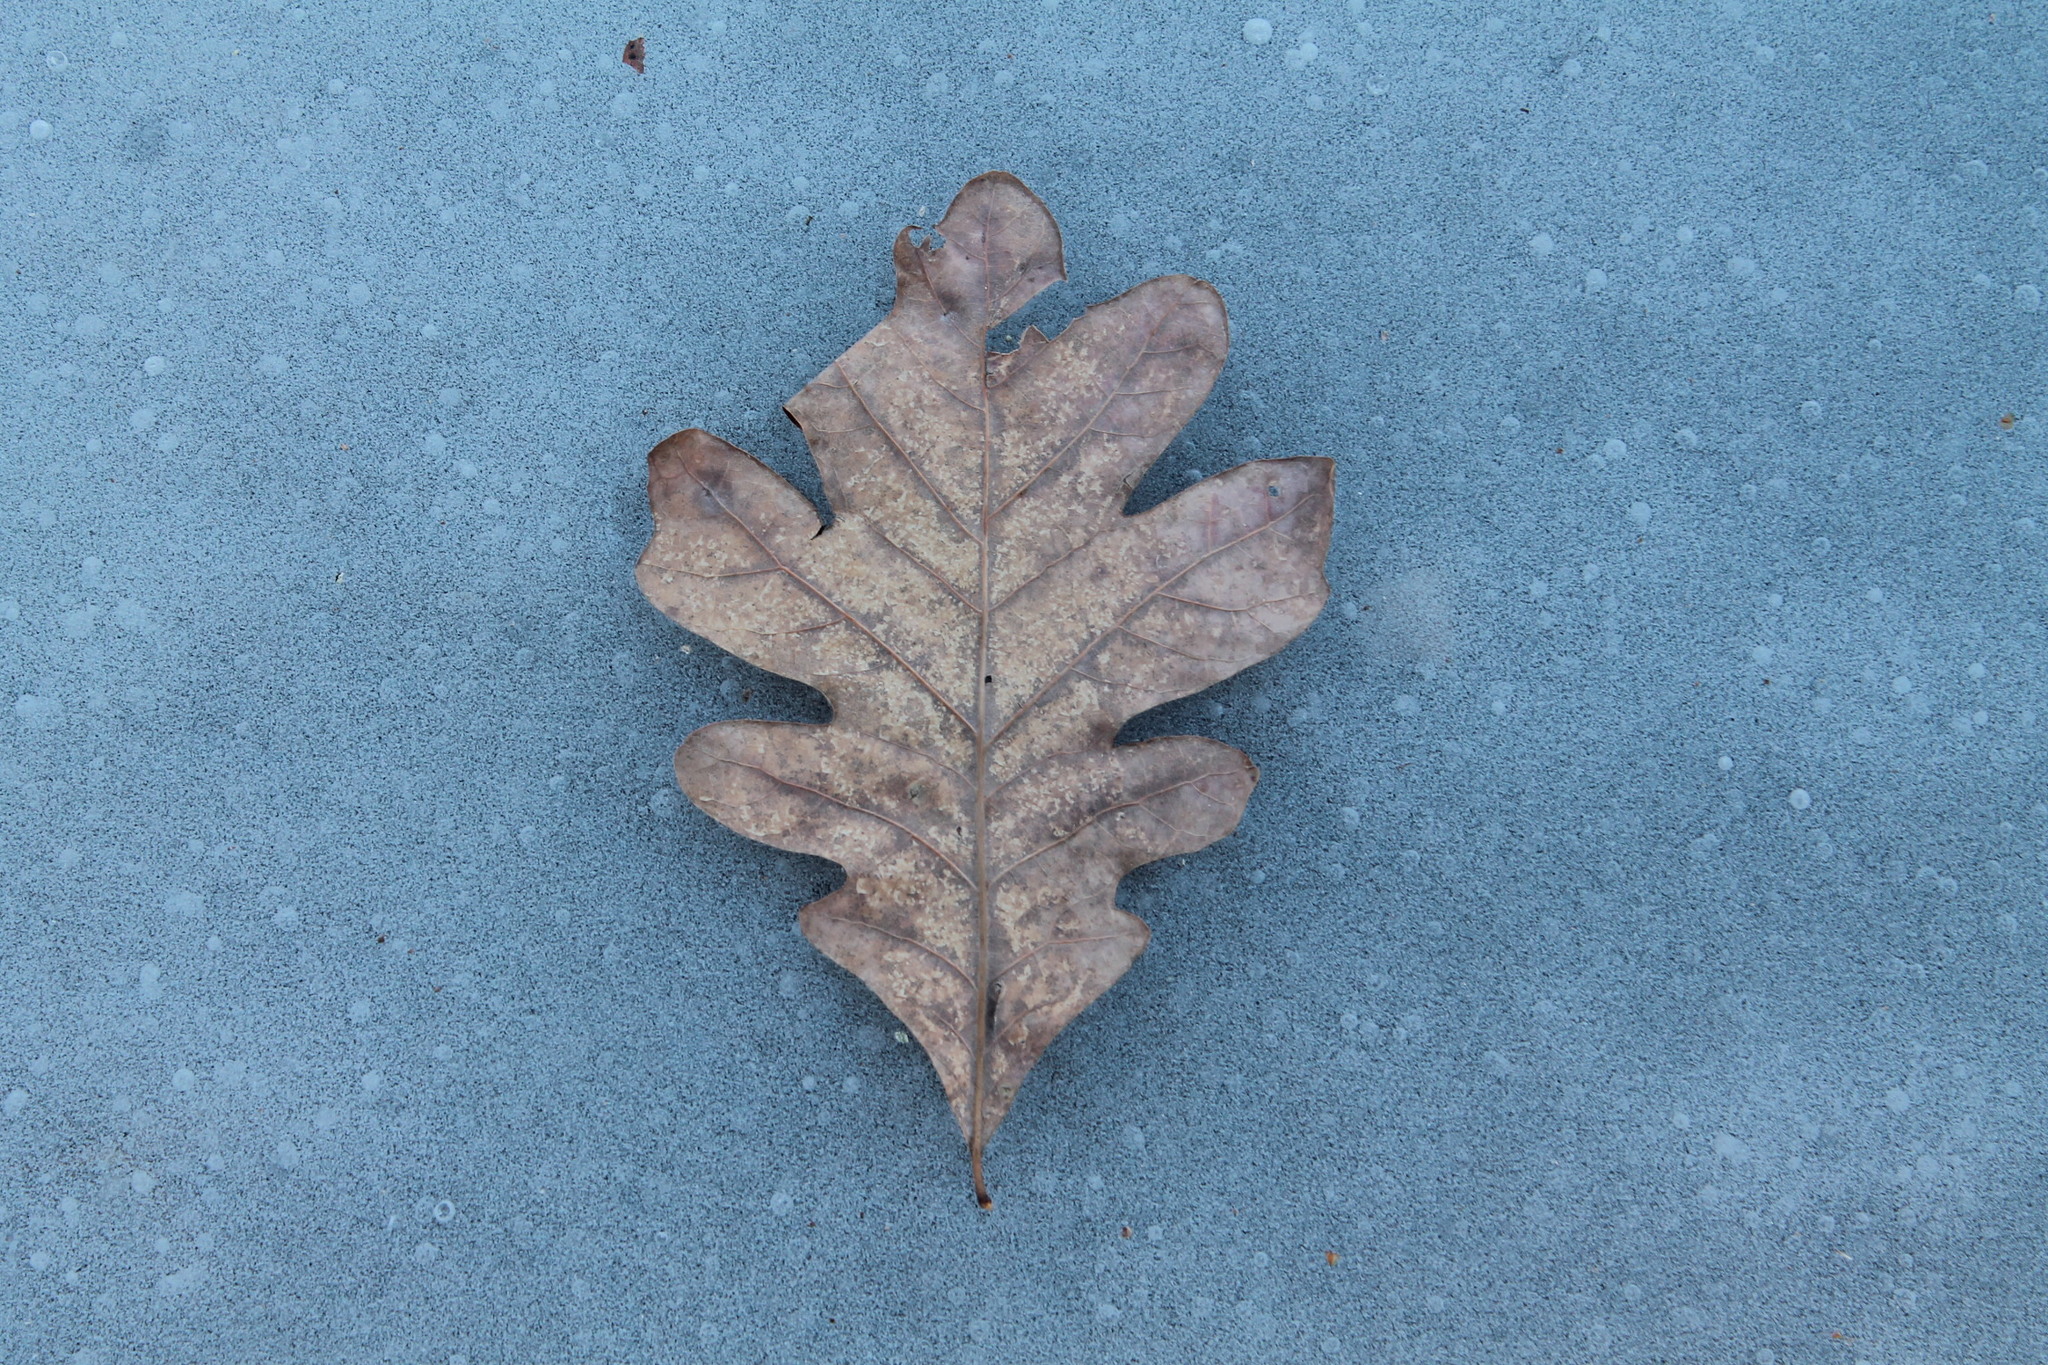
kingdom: Plantae
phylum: Tracheophyta
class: Magnoliopsida
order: Fagales
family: Fagaceae
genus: Quercus
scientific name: Quercus alba
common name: White oak
